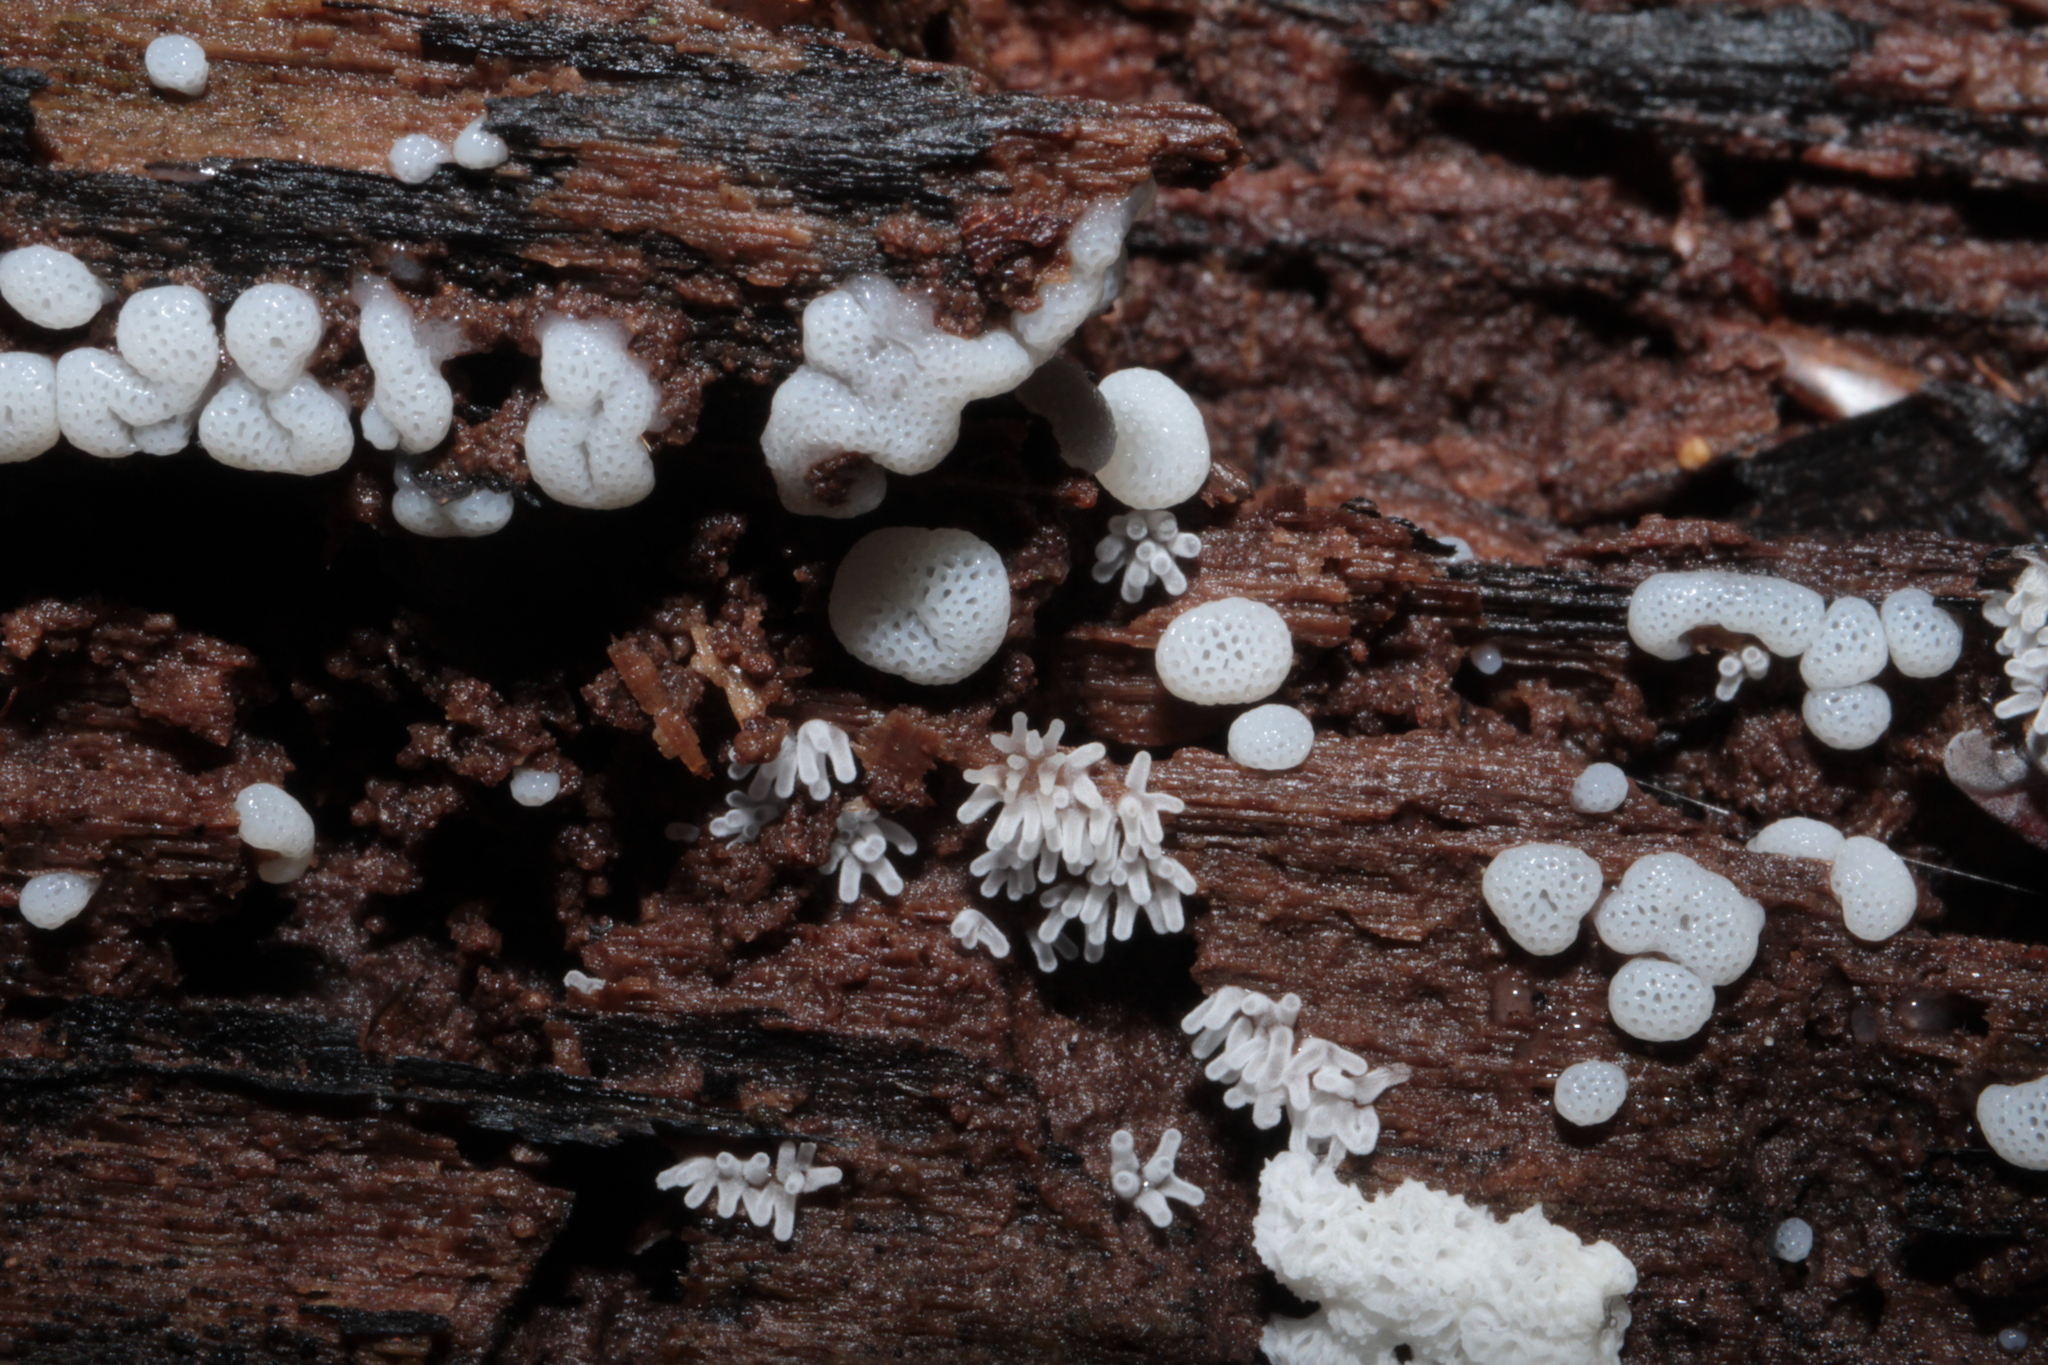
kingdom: Protozoa
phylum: Mycetozoa
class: Protosteliomycetes
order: Ceratiomyxales
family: Ceratiomyxaceae
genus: Ceratiomyxa
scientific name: Ceratiomyxa fruticulosa
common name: Honeycomb coral slime mold
